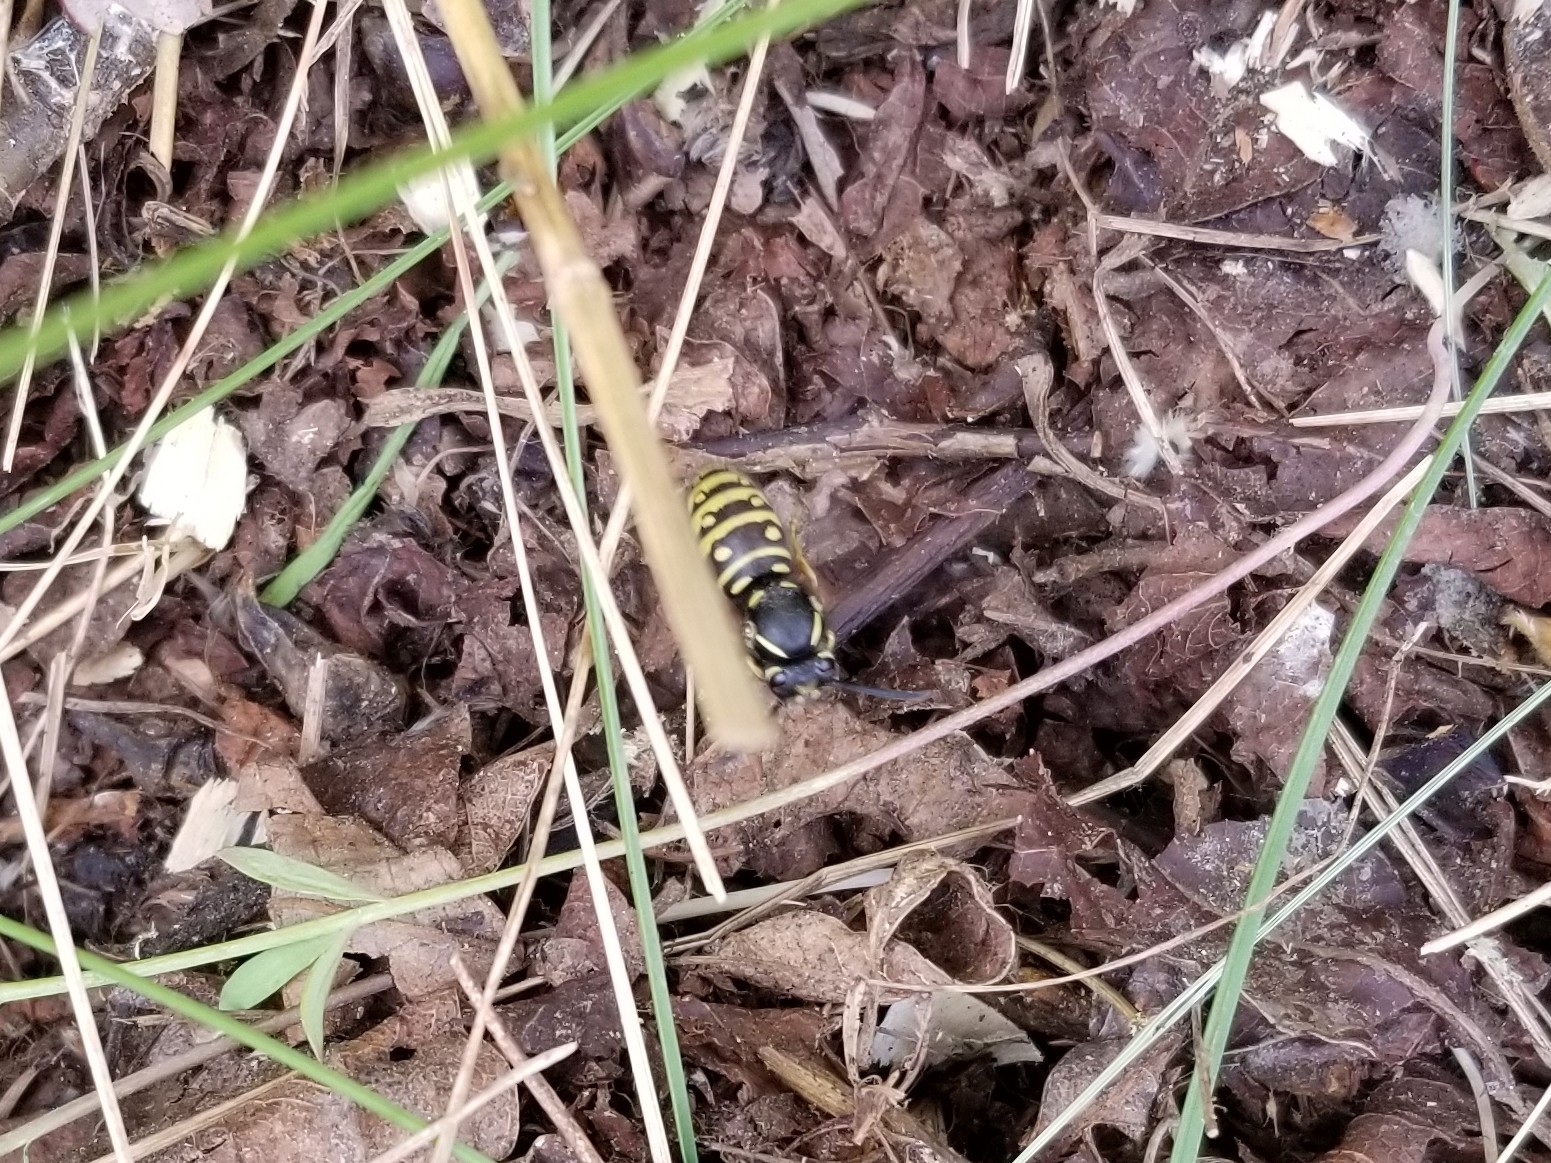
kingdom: Animalia
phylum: Arthropoda
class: Insecta
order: Hymenoptera
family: Vespidae
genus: Vespula
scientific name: Vespula acadica
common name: Forest yellowjacket
